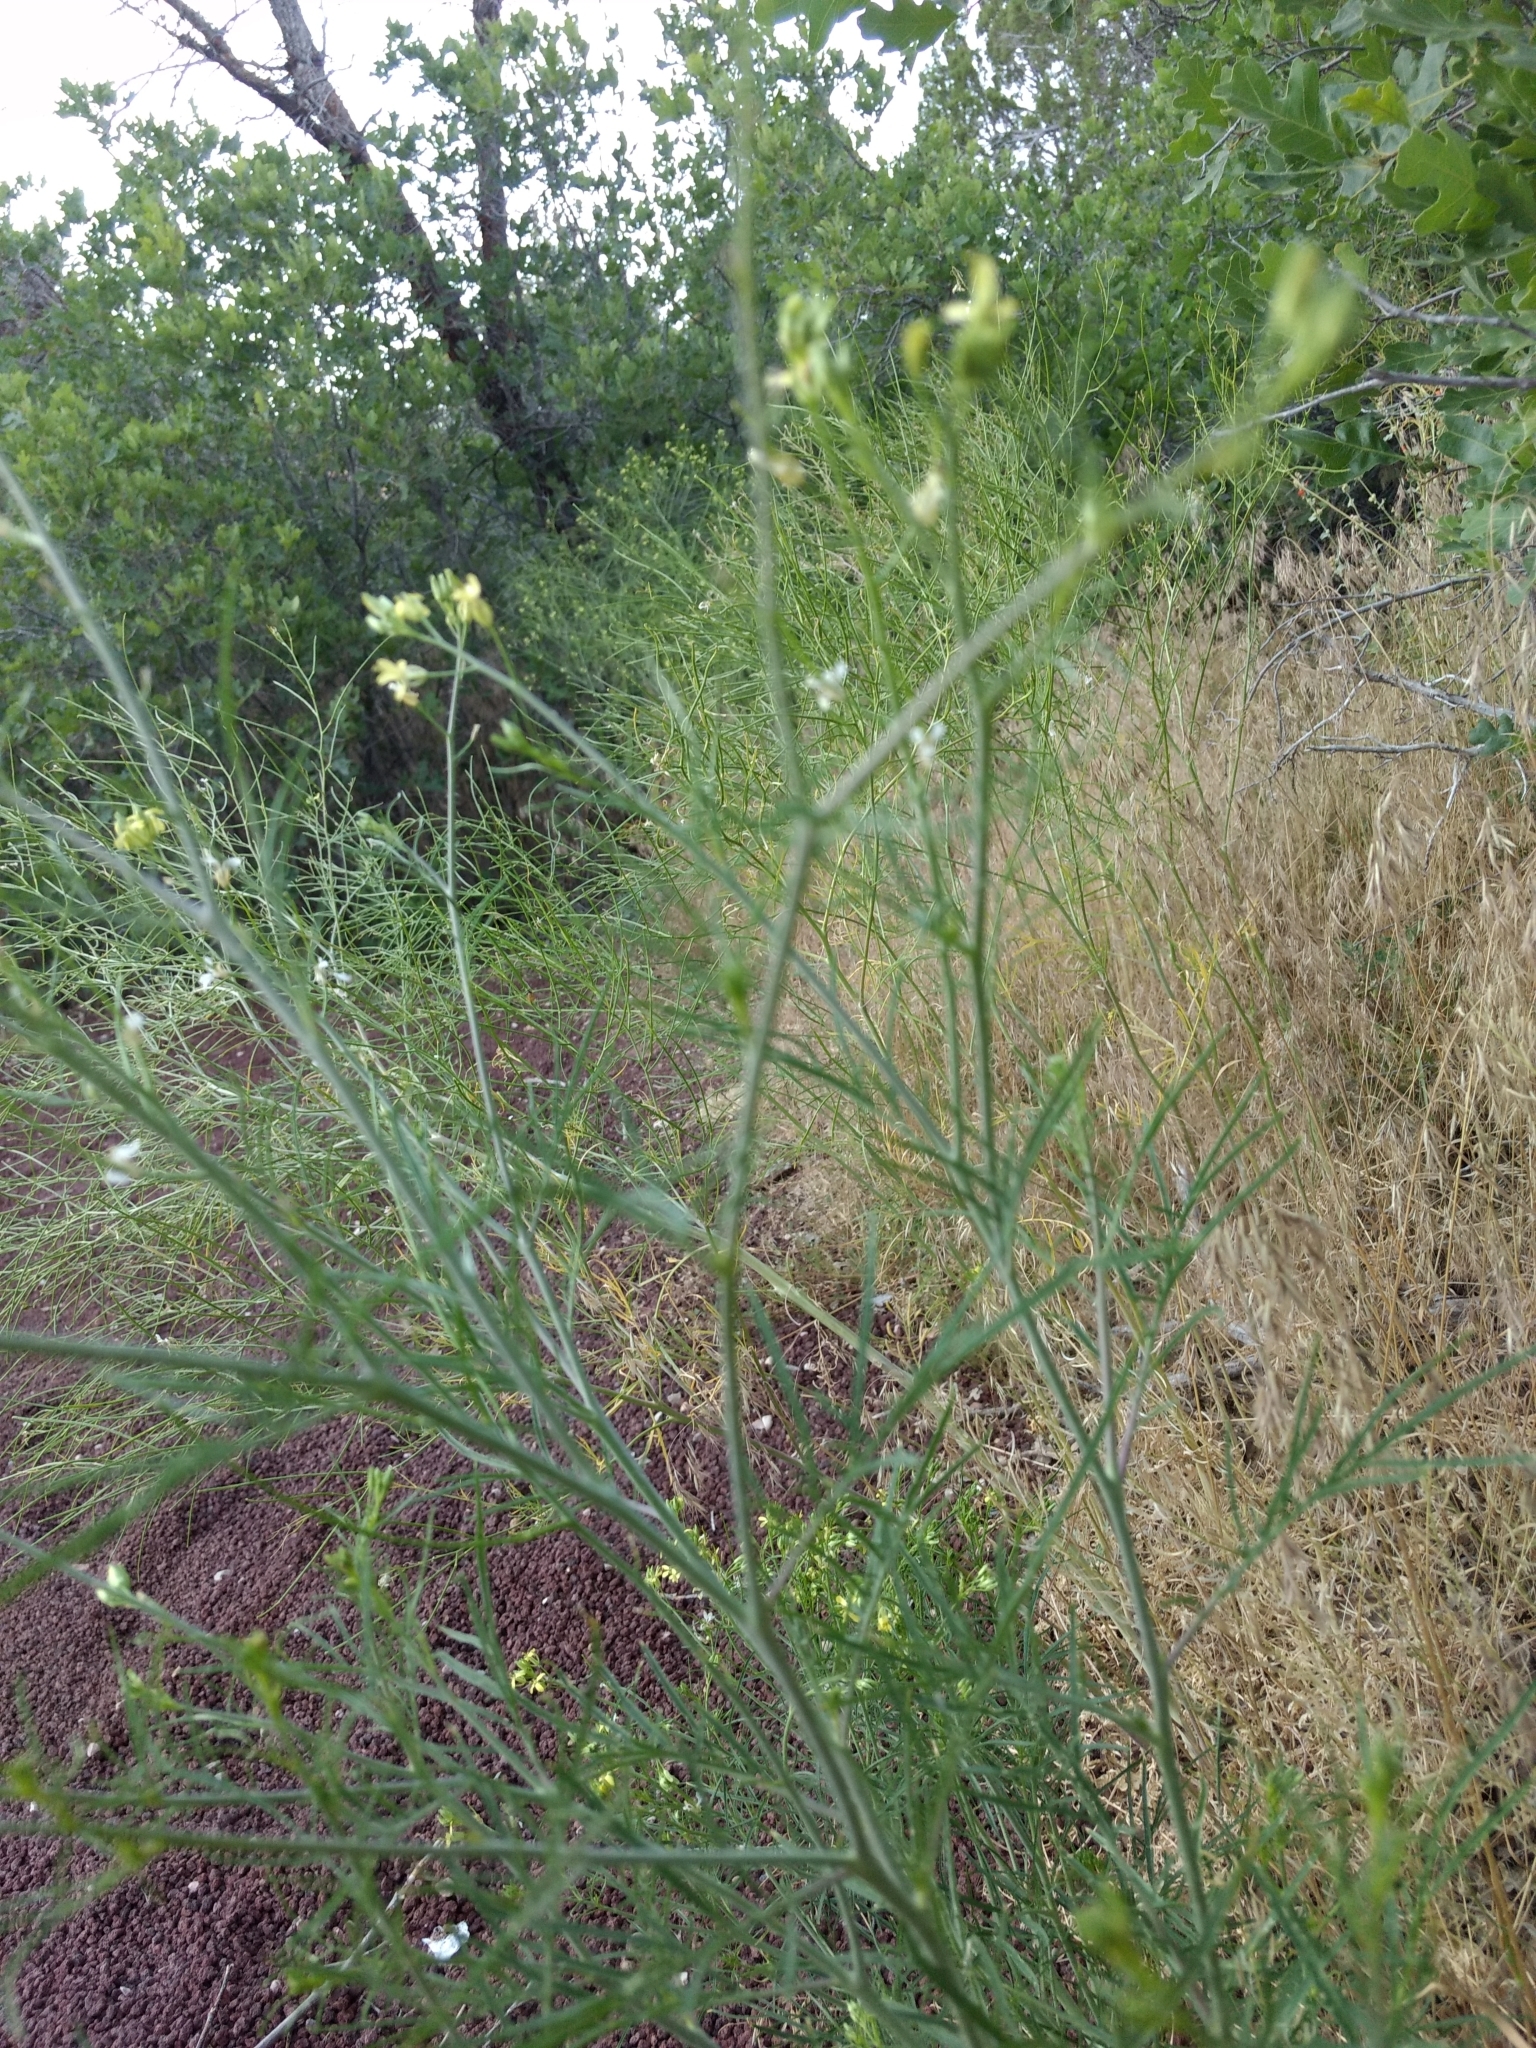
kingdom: Plantae
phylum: Tracheophyta
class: Magnoliopsida
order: Brassicales
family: Brassicaceae
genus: Sisymbrium
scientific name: Sisymbrium altissimum
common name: Tall rocket
